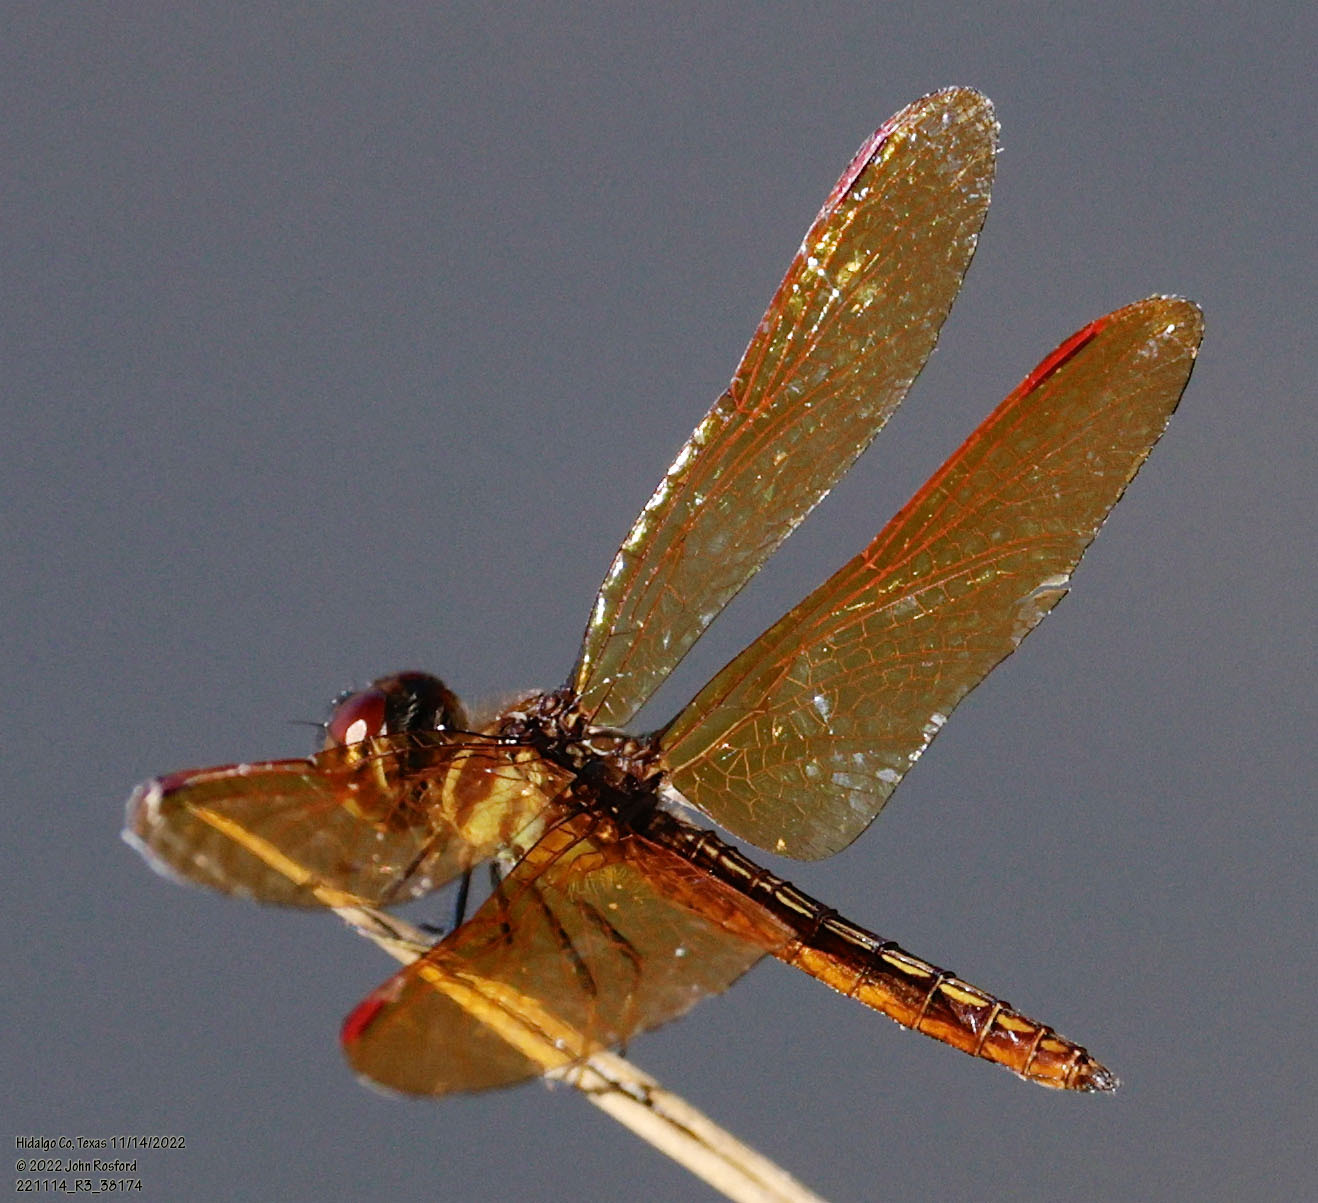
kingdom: Animalia
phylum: Arthropoda
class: Insecta
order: Odonata
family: Libellulidae
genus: Perithemis
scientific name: Perithemis domitia
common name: Slough amberwing
